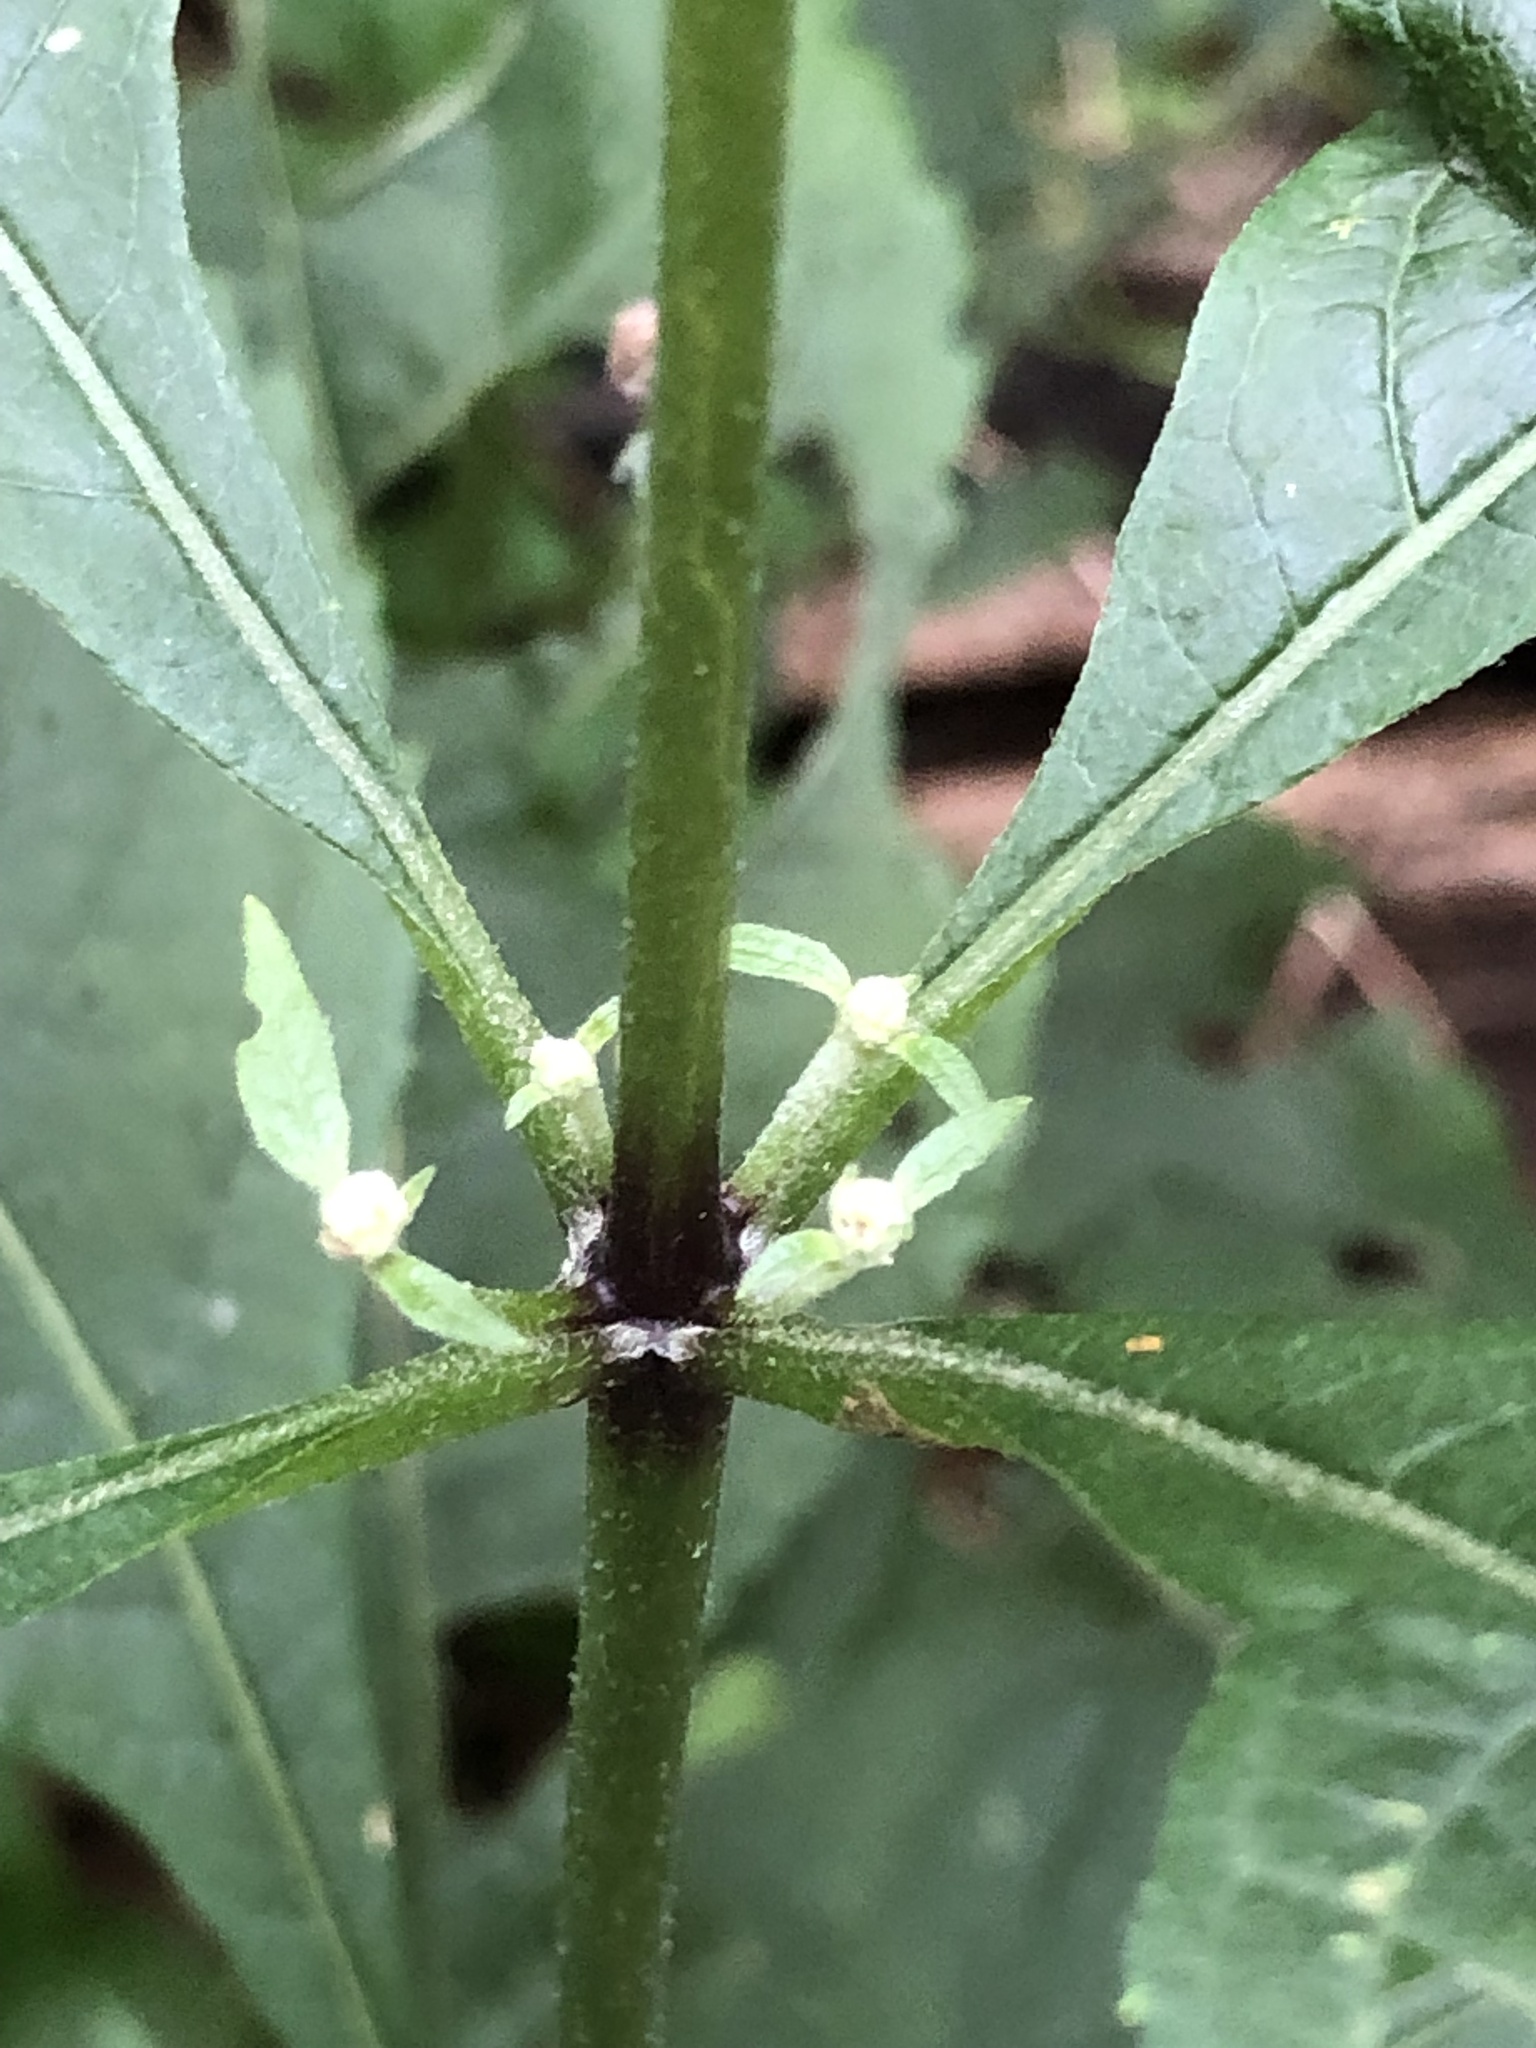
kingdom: Plantae
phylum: Tracheophyta
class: Magnoliopsida
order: Asterales
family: Asteraceae
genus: Eutrochium
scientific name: Eutrochium purpureum
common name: Gravelroot
